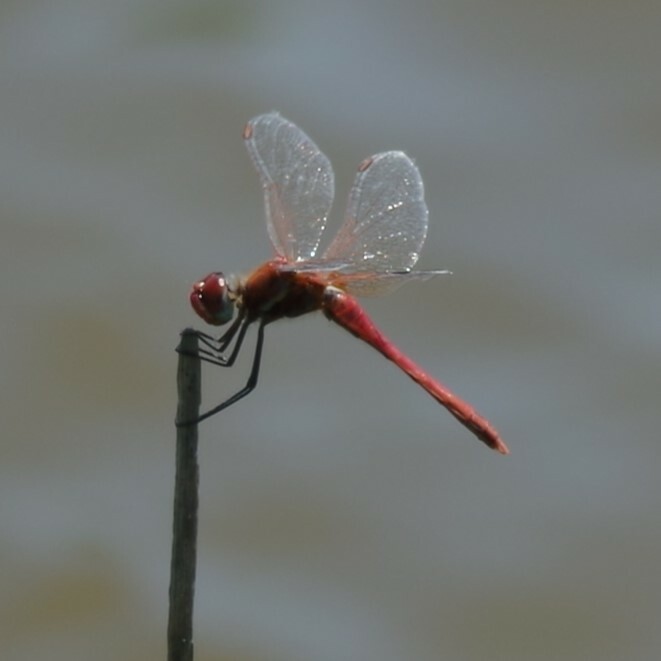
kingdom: Animalia
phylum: Arthropoda
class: Insecta
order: Odonata
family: Libellulidae
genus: Sympetrum
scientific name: Sympetrum fonscolombii
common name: Red-veined darter
